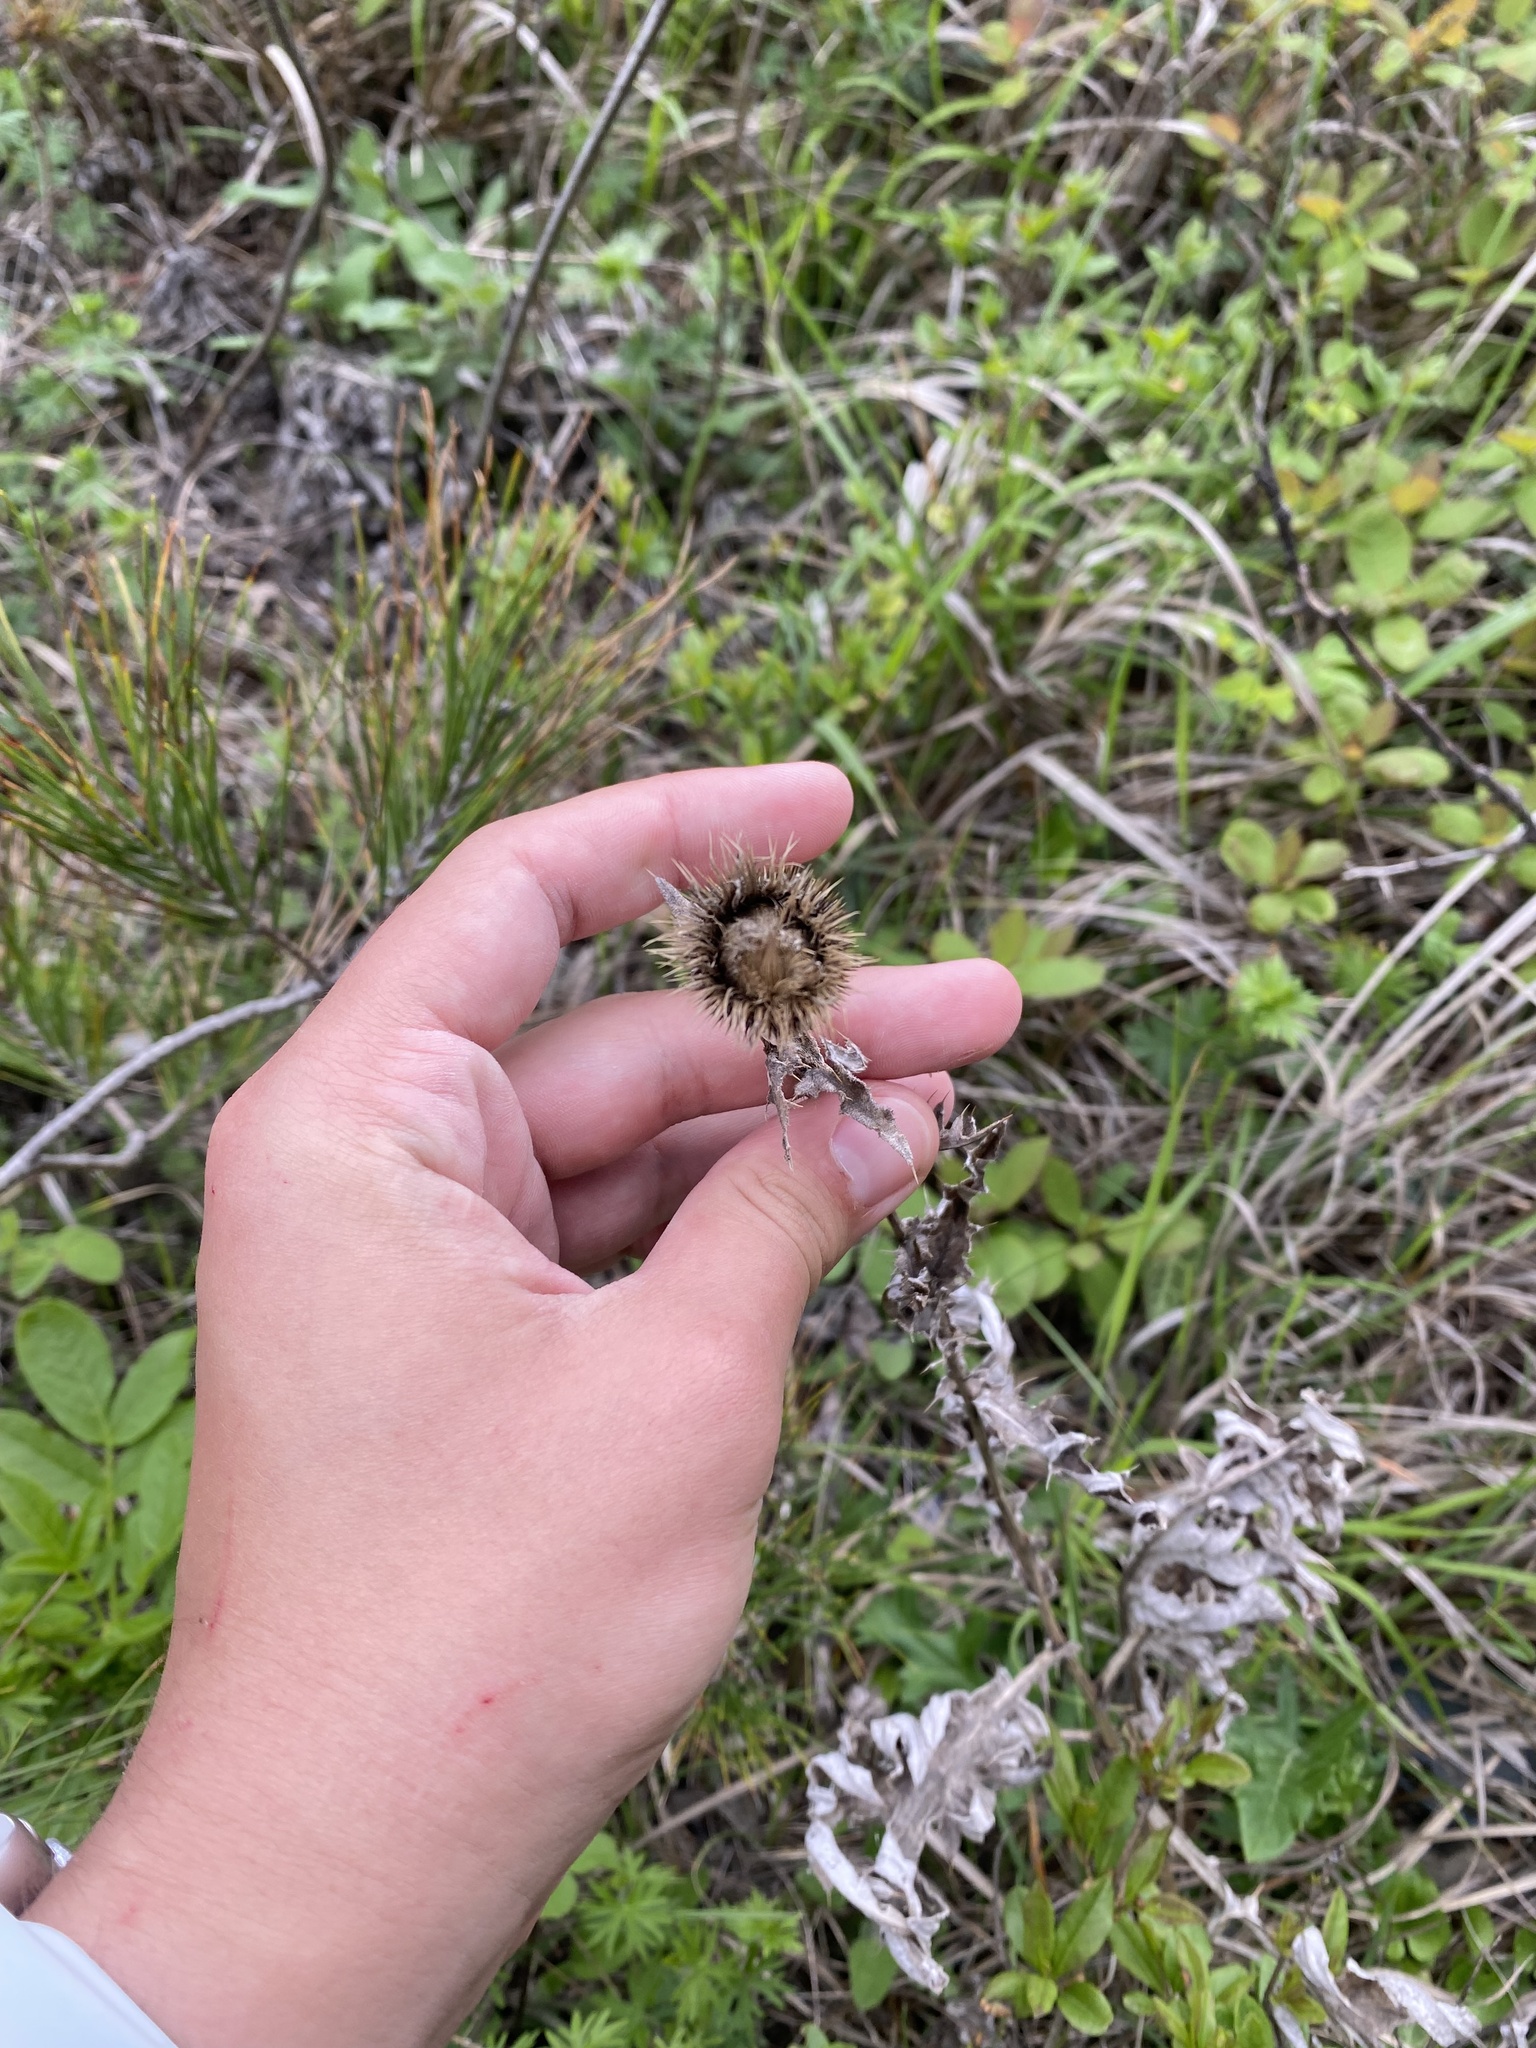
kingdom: Plantae
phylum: Tracheophyta
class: Magnoliopsida
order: Asterales
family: Asteraceae
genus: Carlina
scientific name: Carlina biebersteinii
